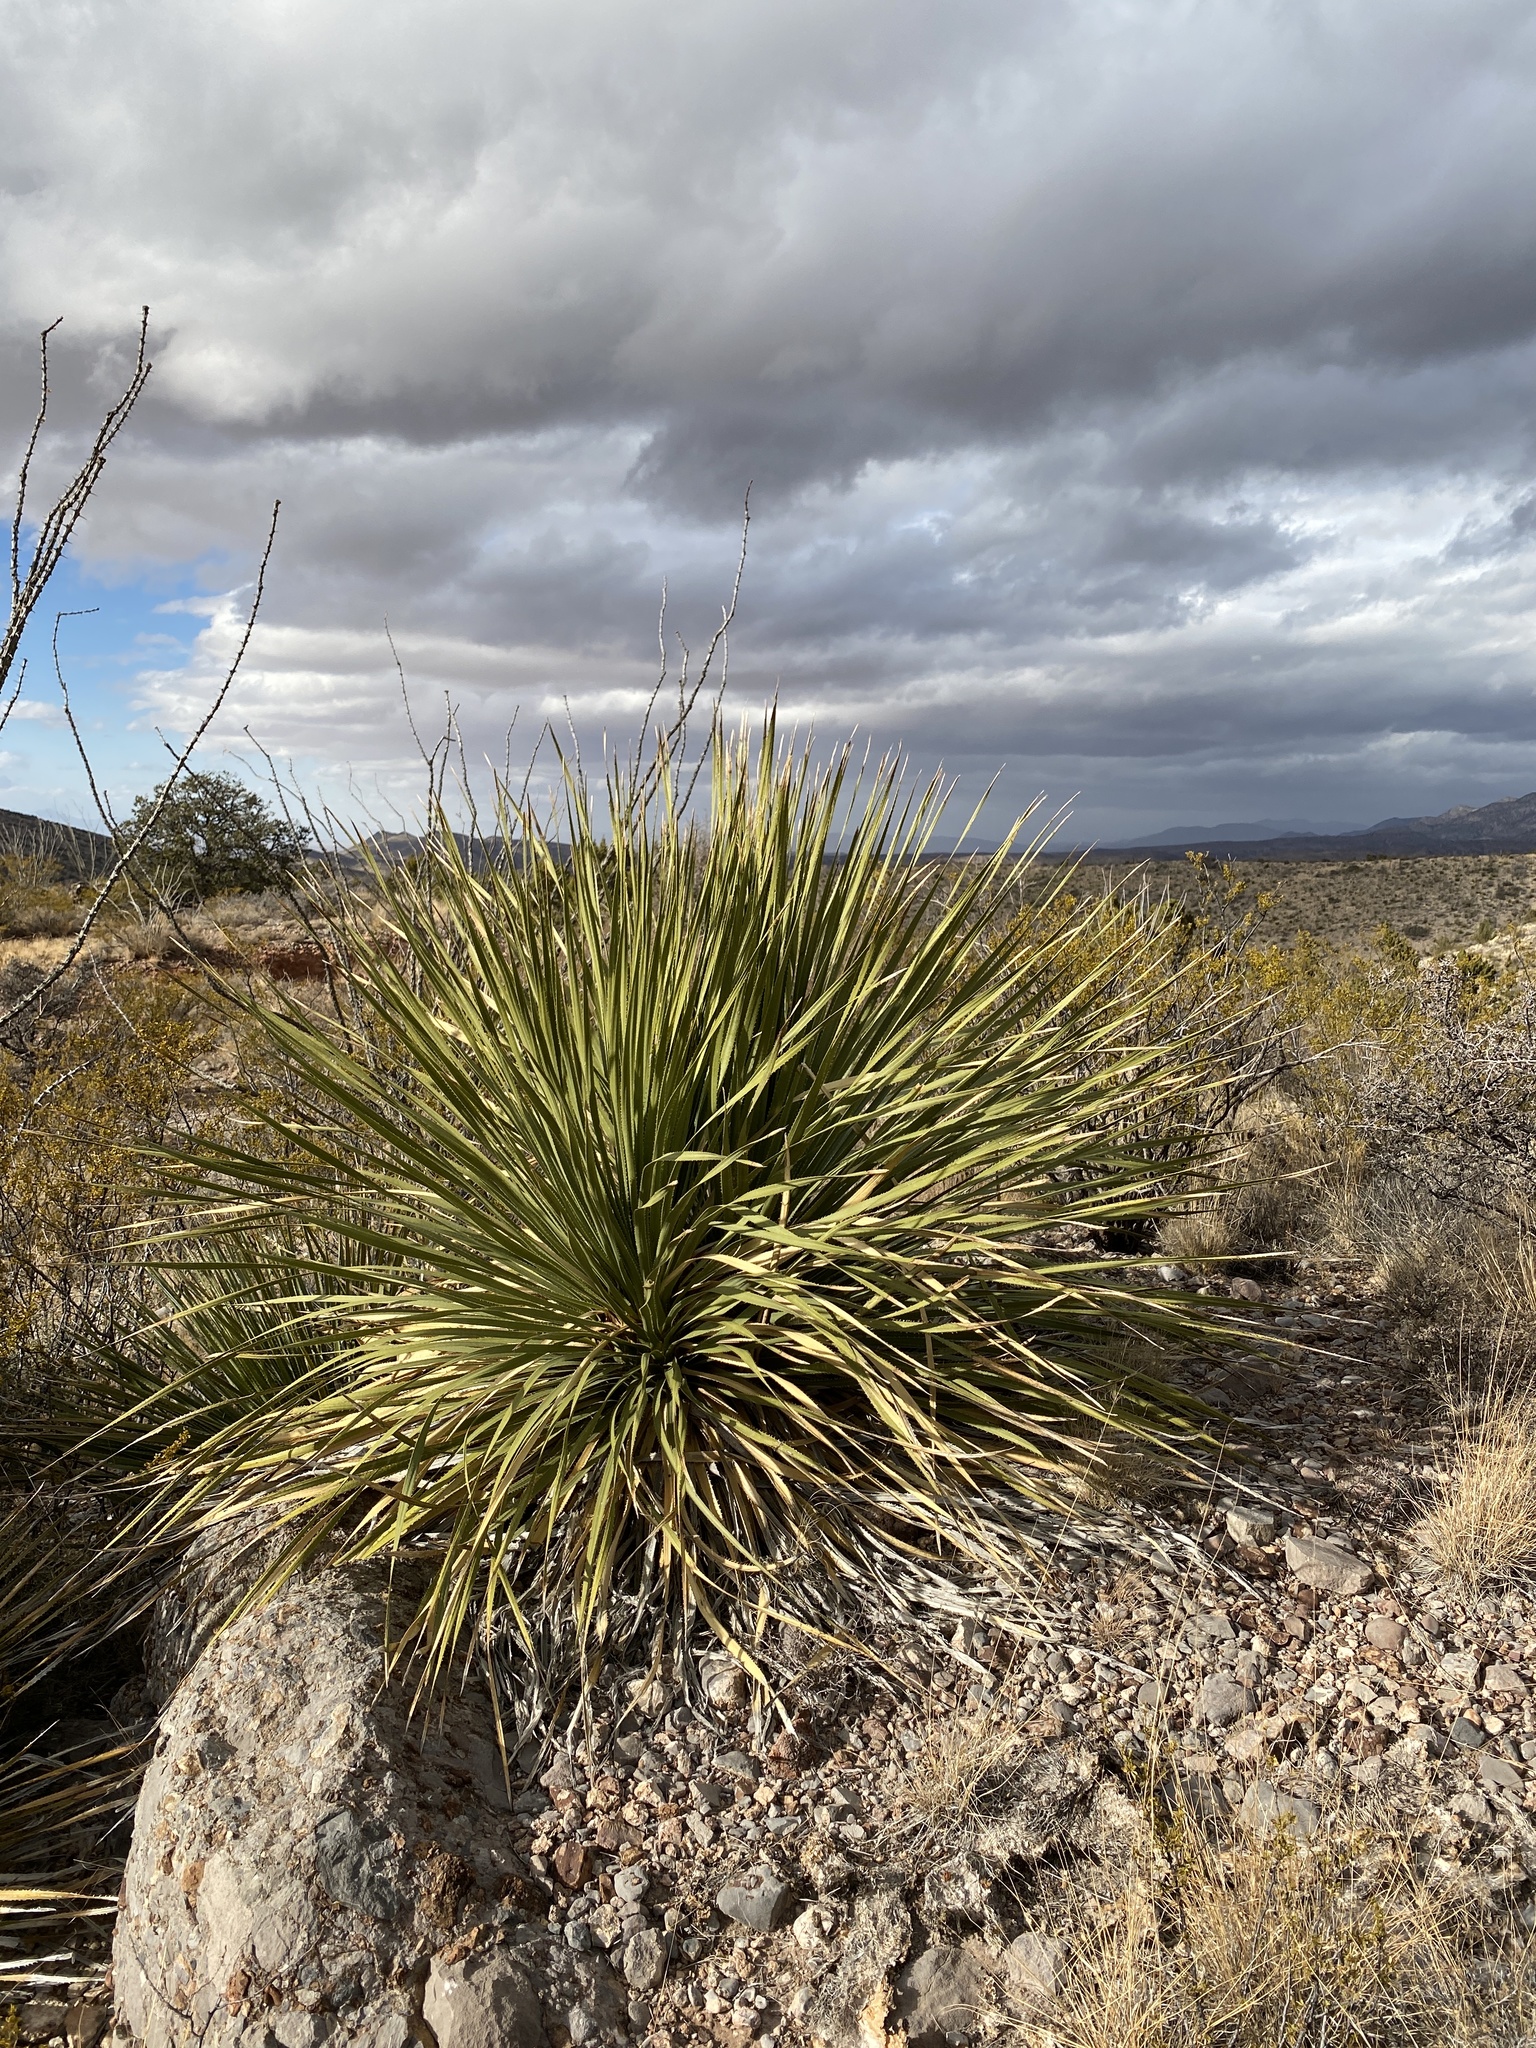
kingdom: Plantae
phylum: Tracheophyta
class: Liliopsida
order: Asparagales
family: Asparagaceae
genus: Dasylirion
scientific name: Dasylirion wheeleri
